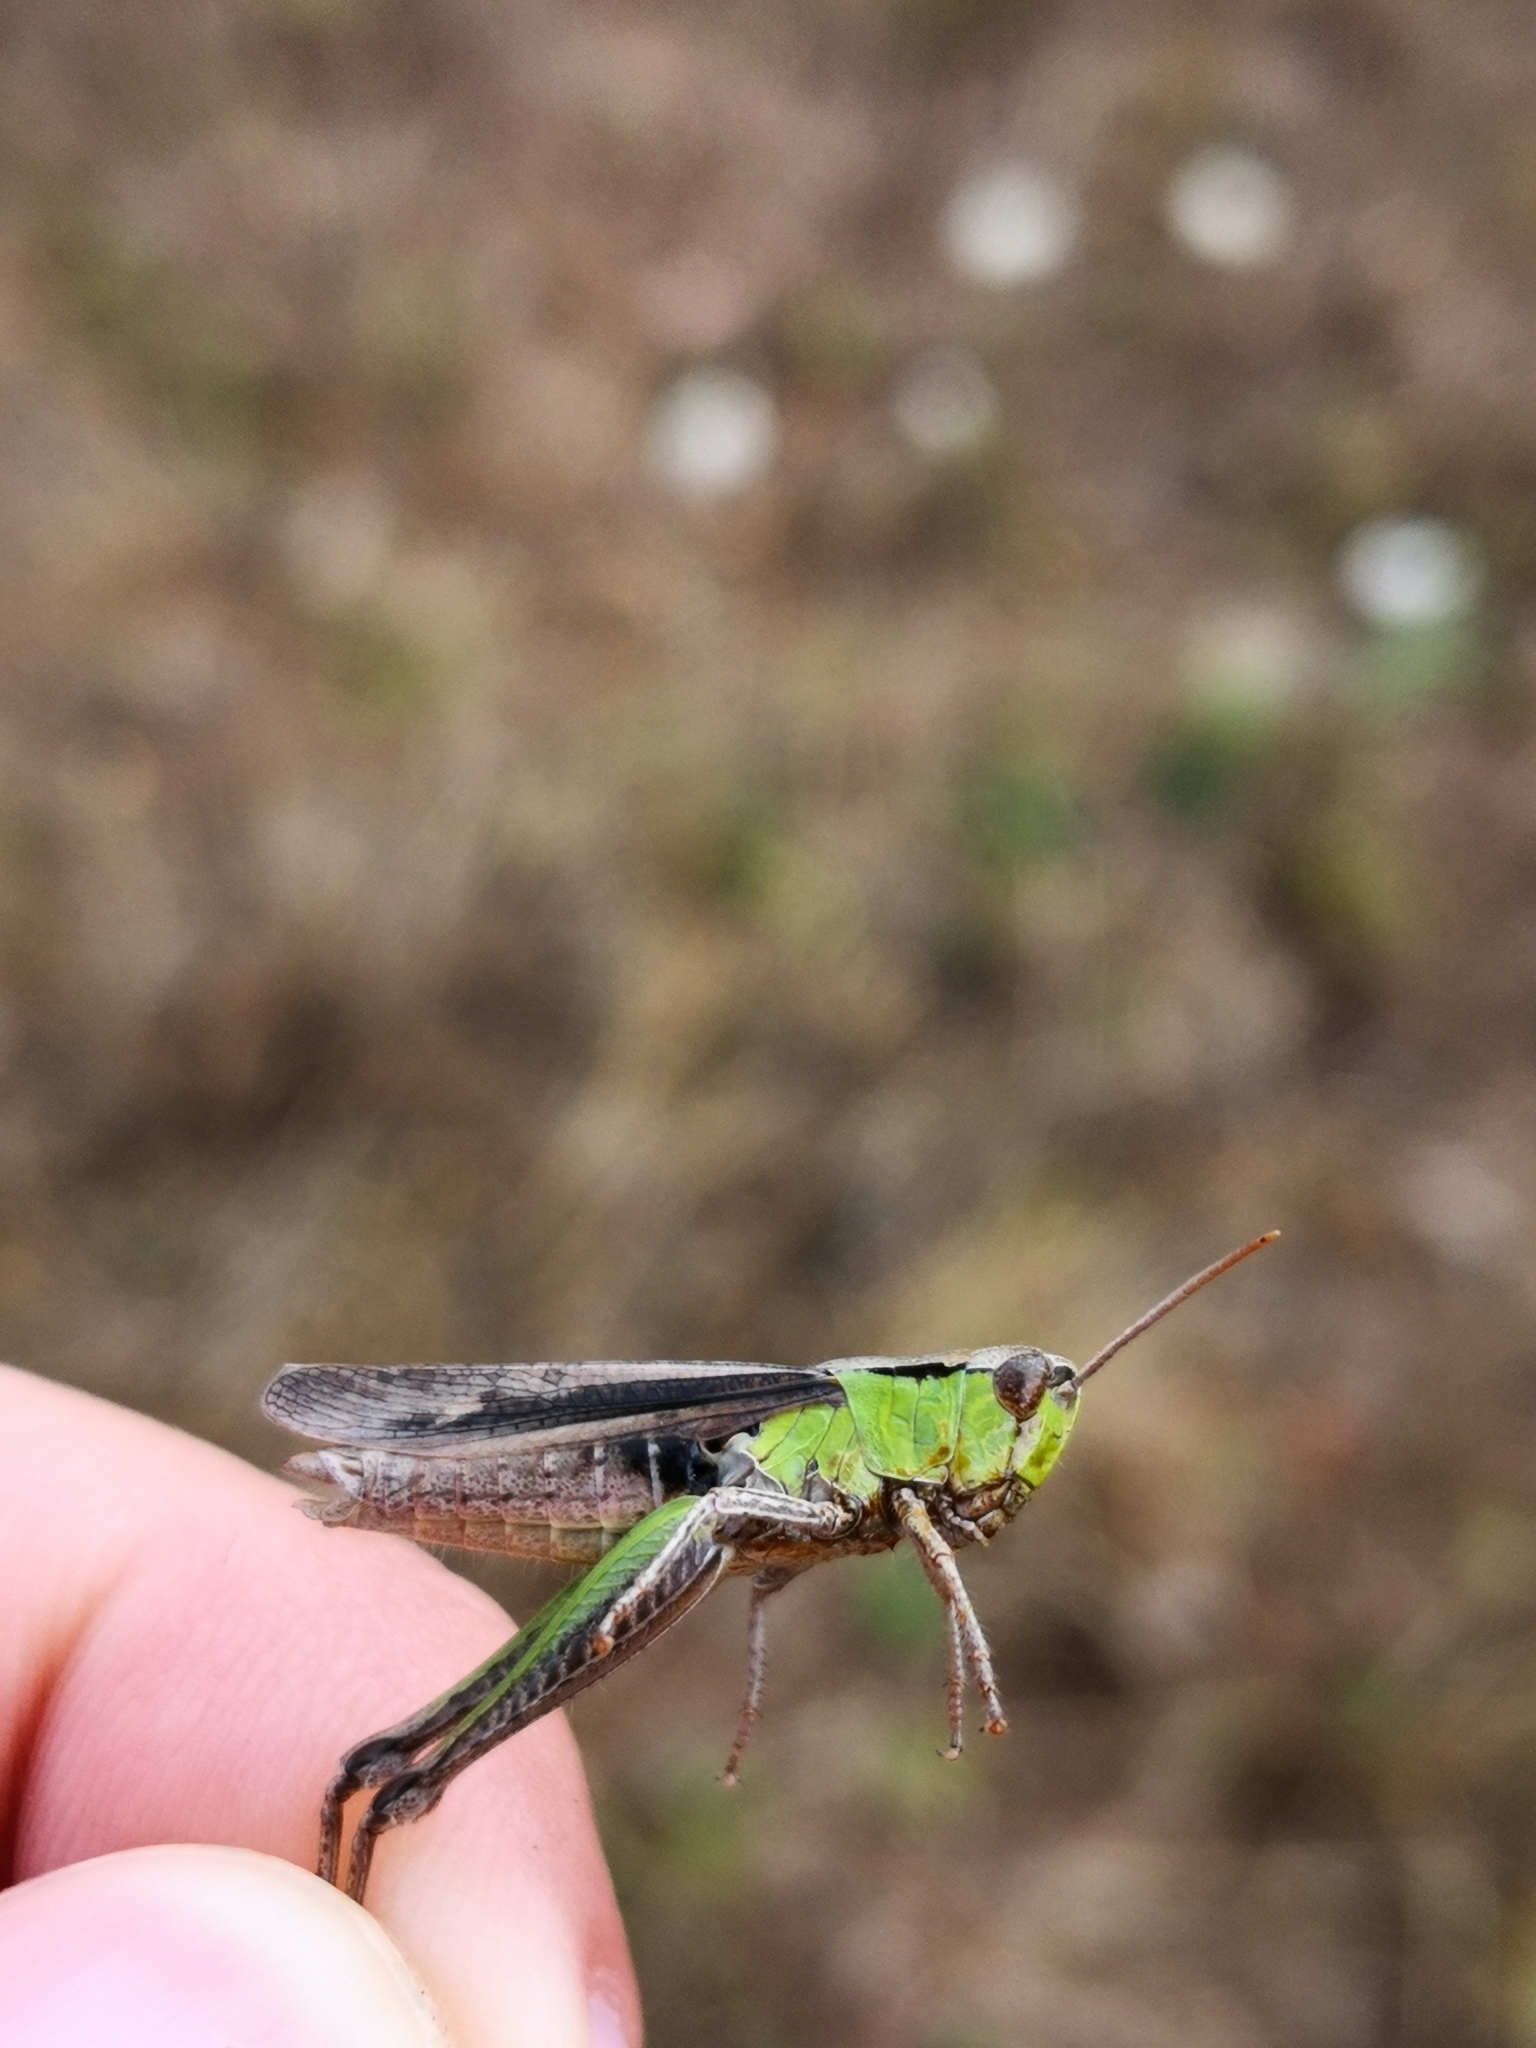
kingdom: Animalia
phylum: Arthropoda
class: Insecta
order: Orthoptera
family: Acrididae
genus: Pseudochorthippus
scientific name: Pseudochorthippus parallelus
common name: Meadow grasshopper
